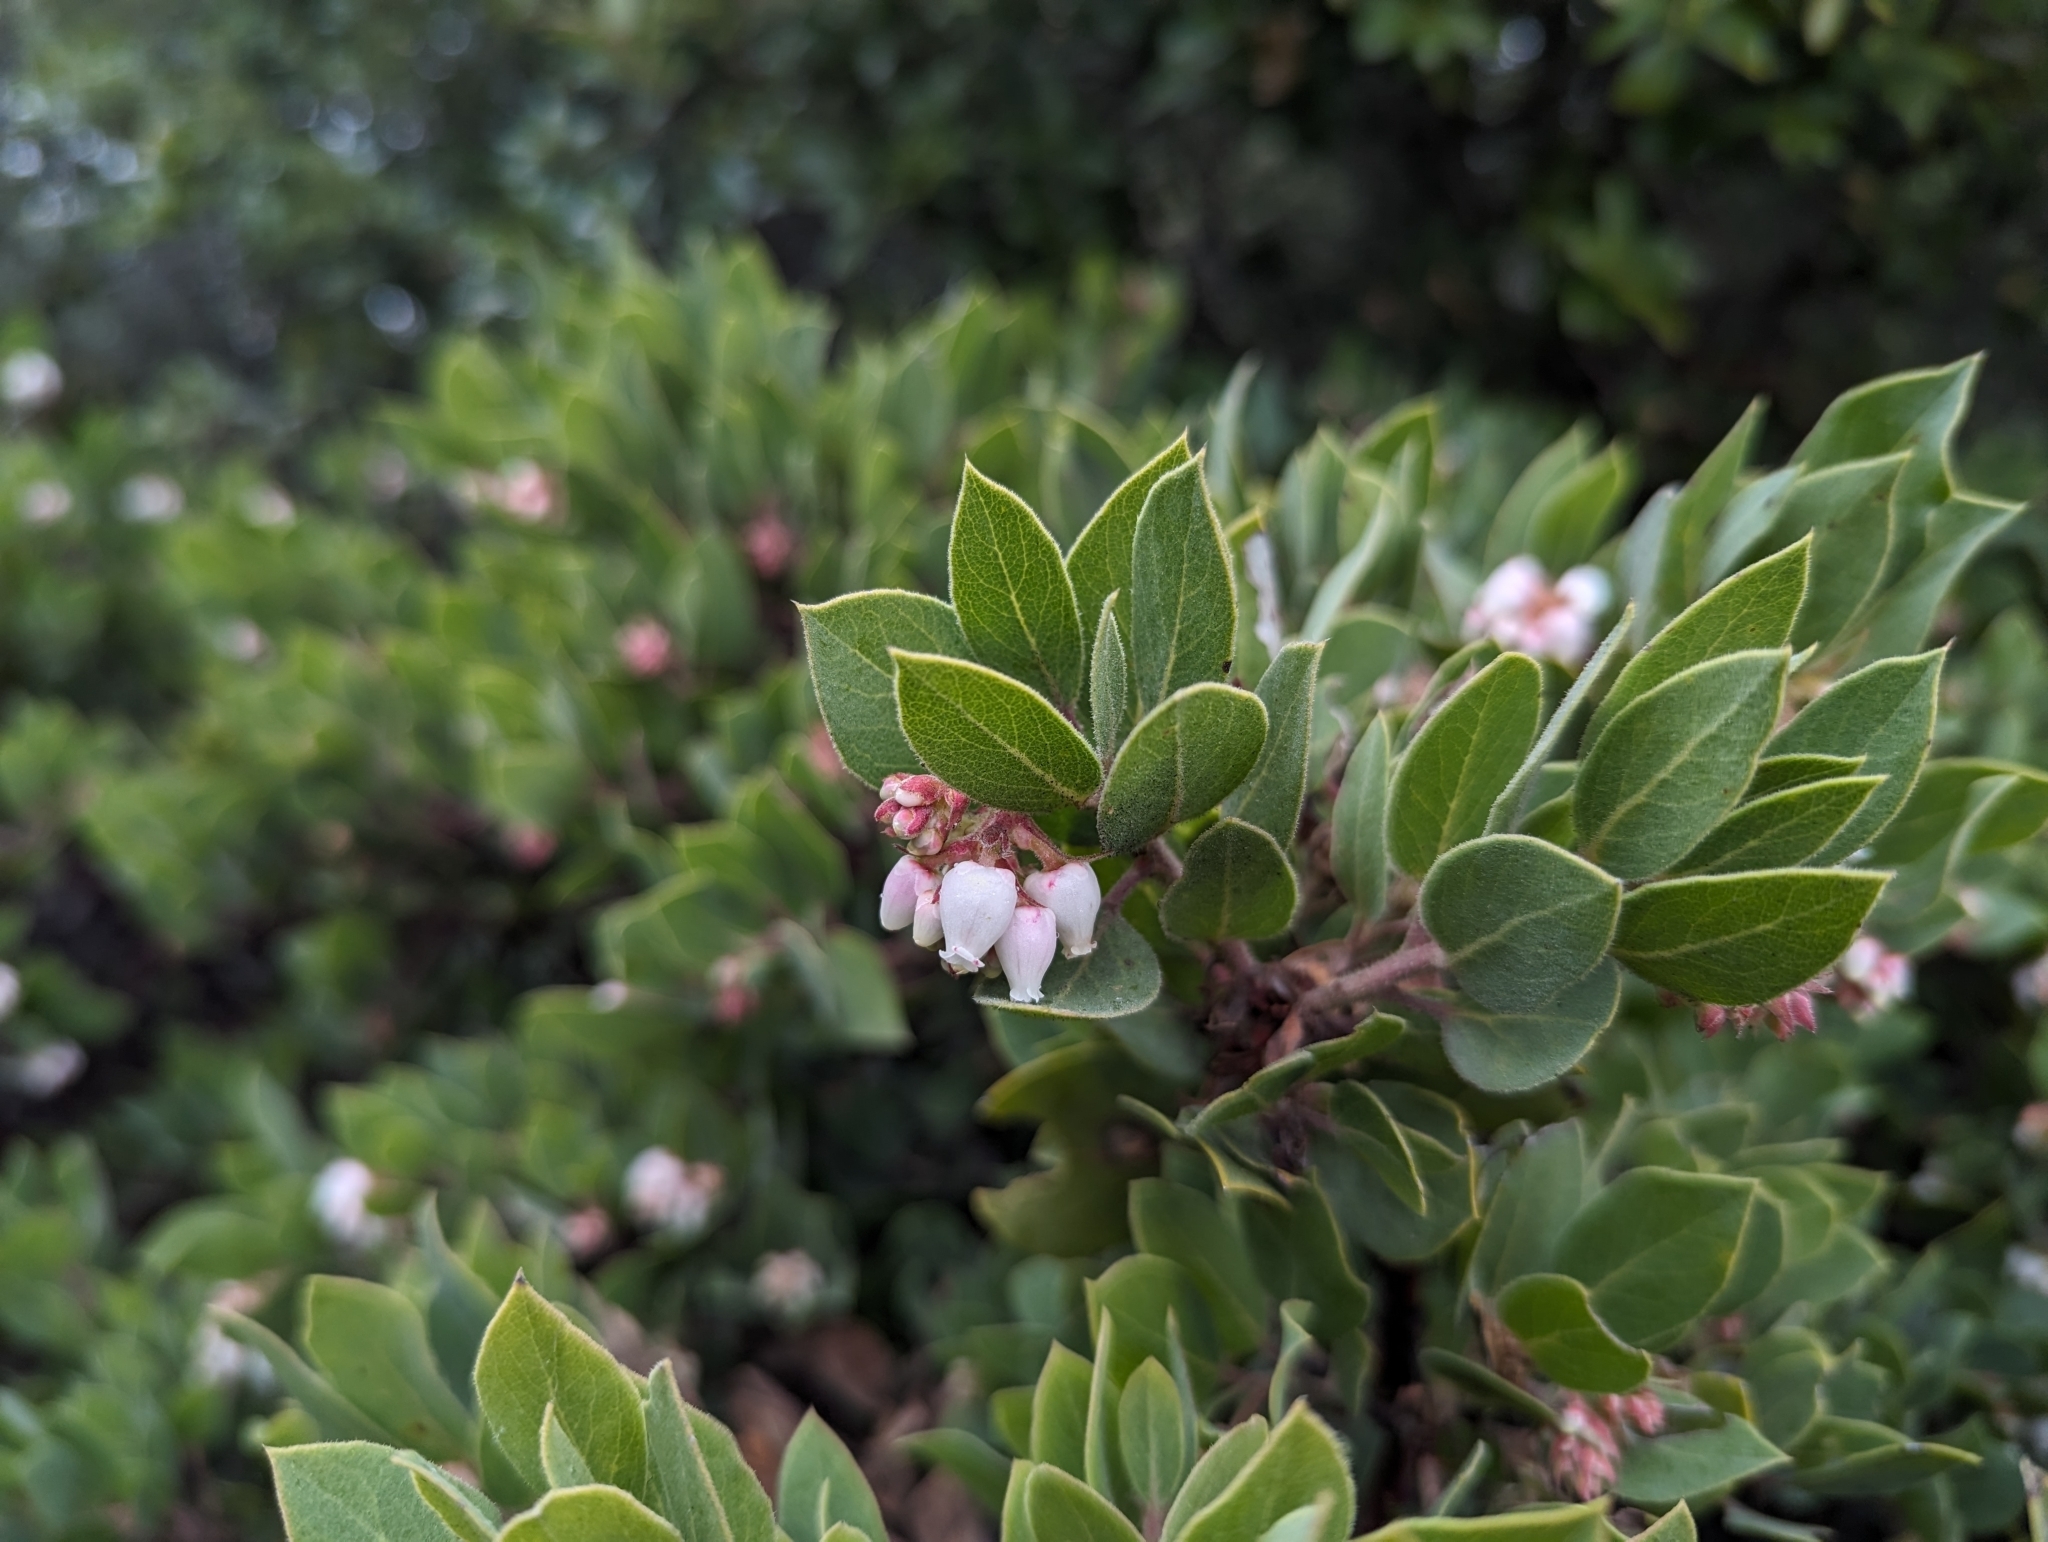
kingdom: Plantae
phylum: Tracheophyta
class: Magnoliopsida
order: Ericales
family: Ericaceae
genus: Arctostaphylos
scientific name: Arctostaphylos glandulosa
